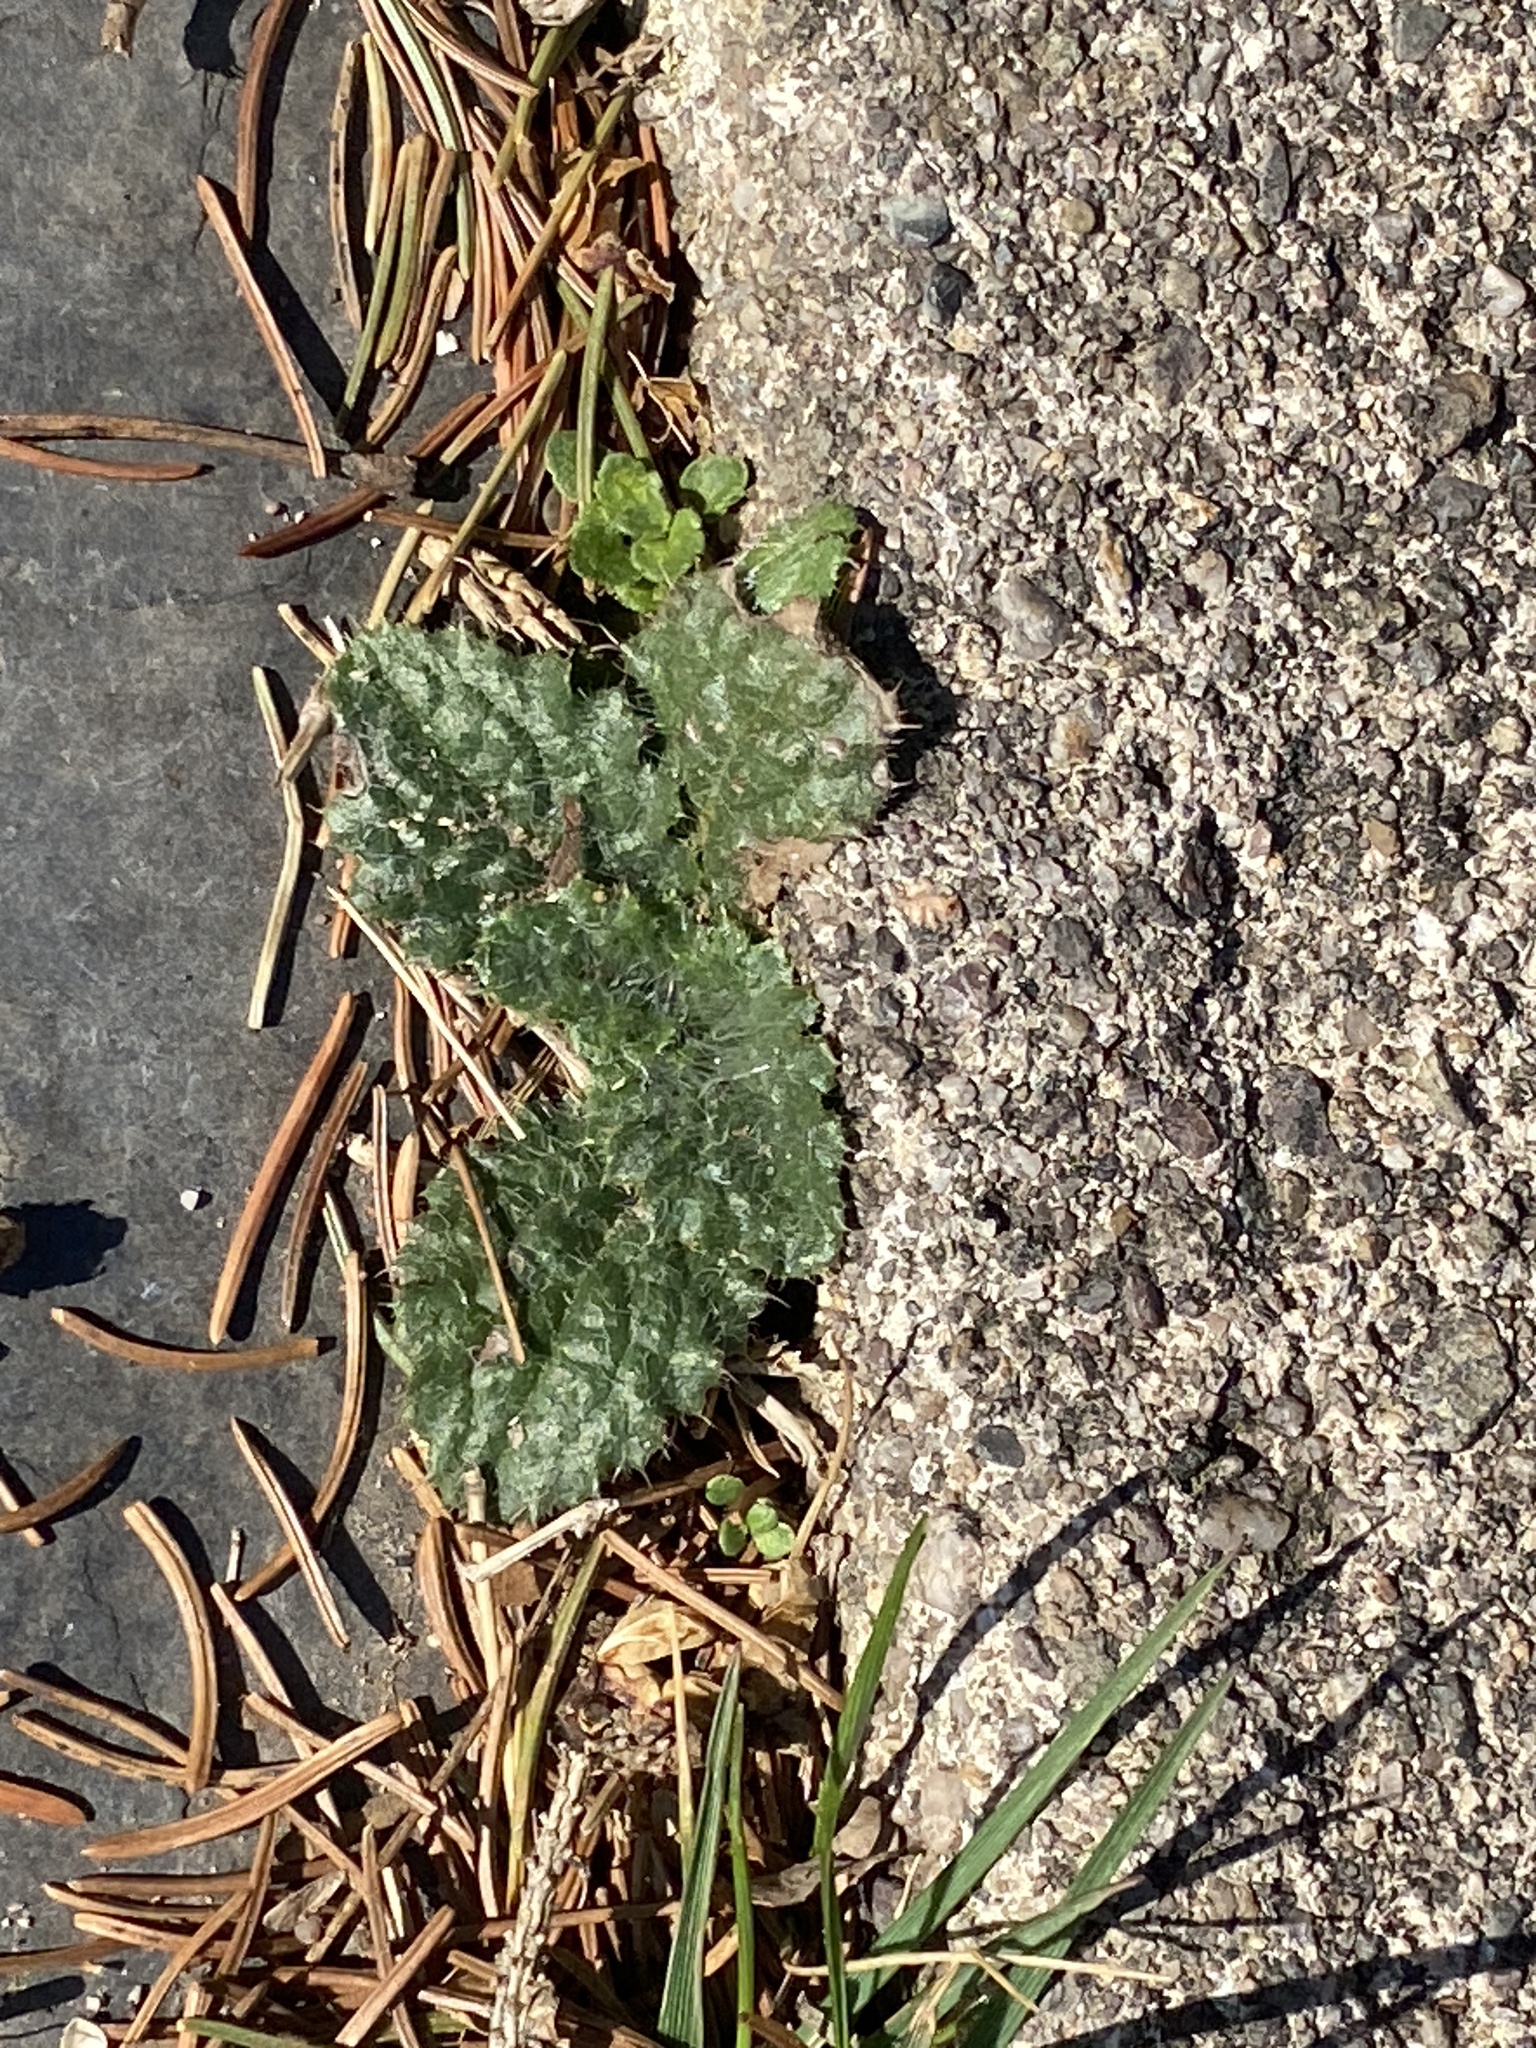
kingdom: Plantae
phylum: Tracheophyta
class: Magnoliopsida
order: Asterales
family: Asteraceae
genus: Cirsium
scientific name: Cirsium vulgare
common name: Bull thistle
